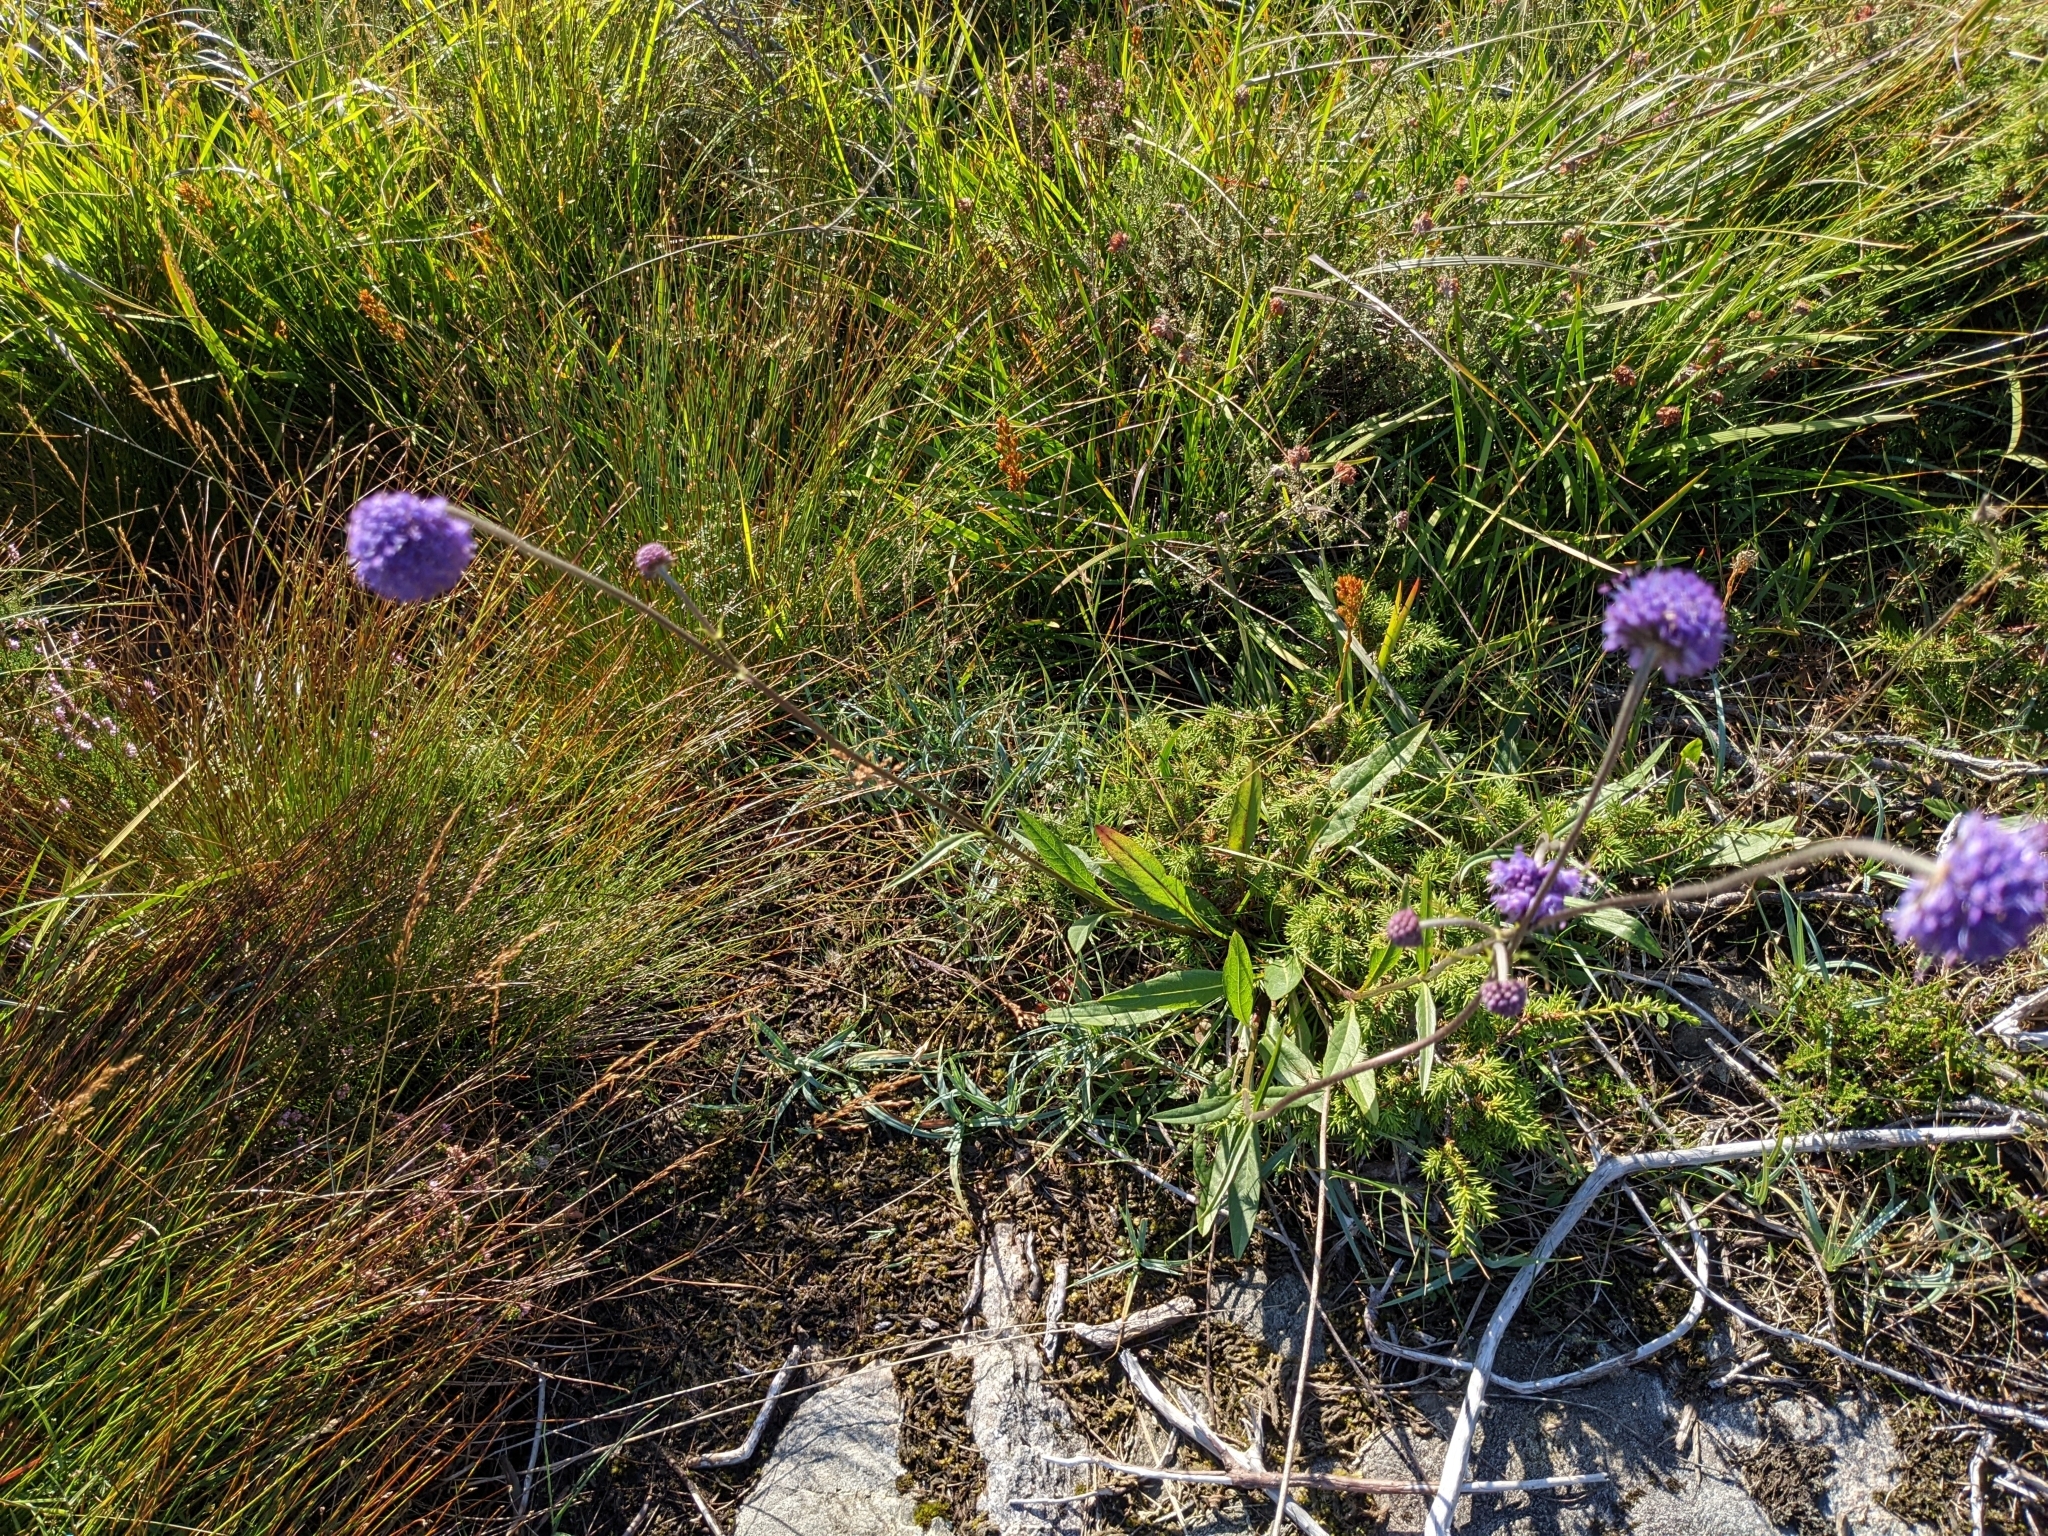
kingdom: Plantae
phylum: Tracheophyta
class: Magnoliopsida
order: Dipsacales
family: Caprifoliaceae
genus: Succisa
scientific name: Succisa pratensis
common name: Devil's-bit
